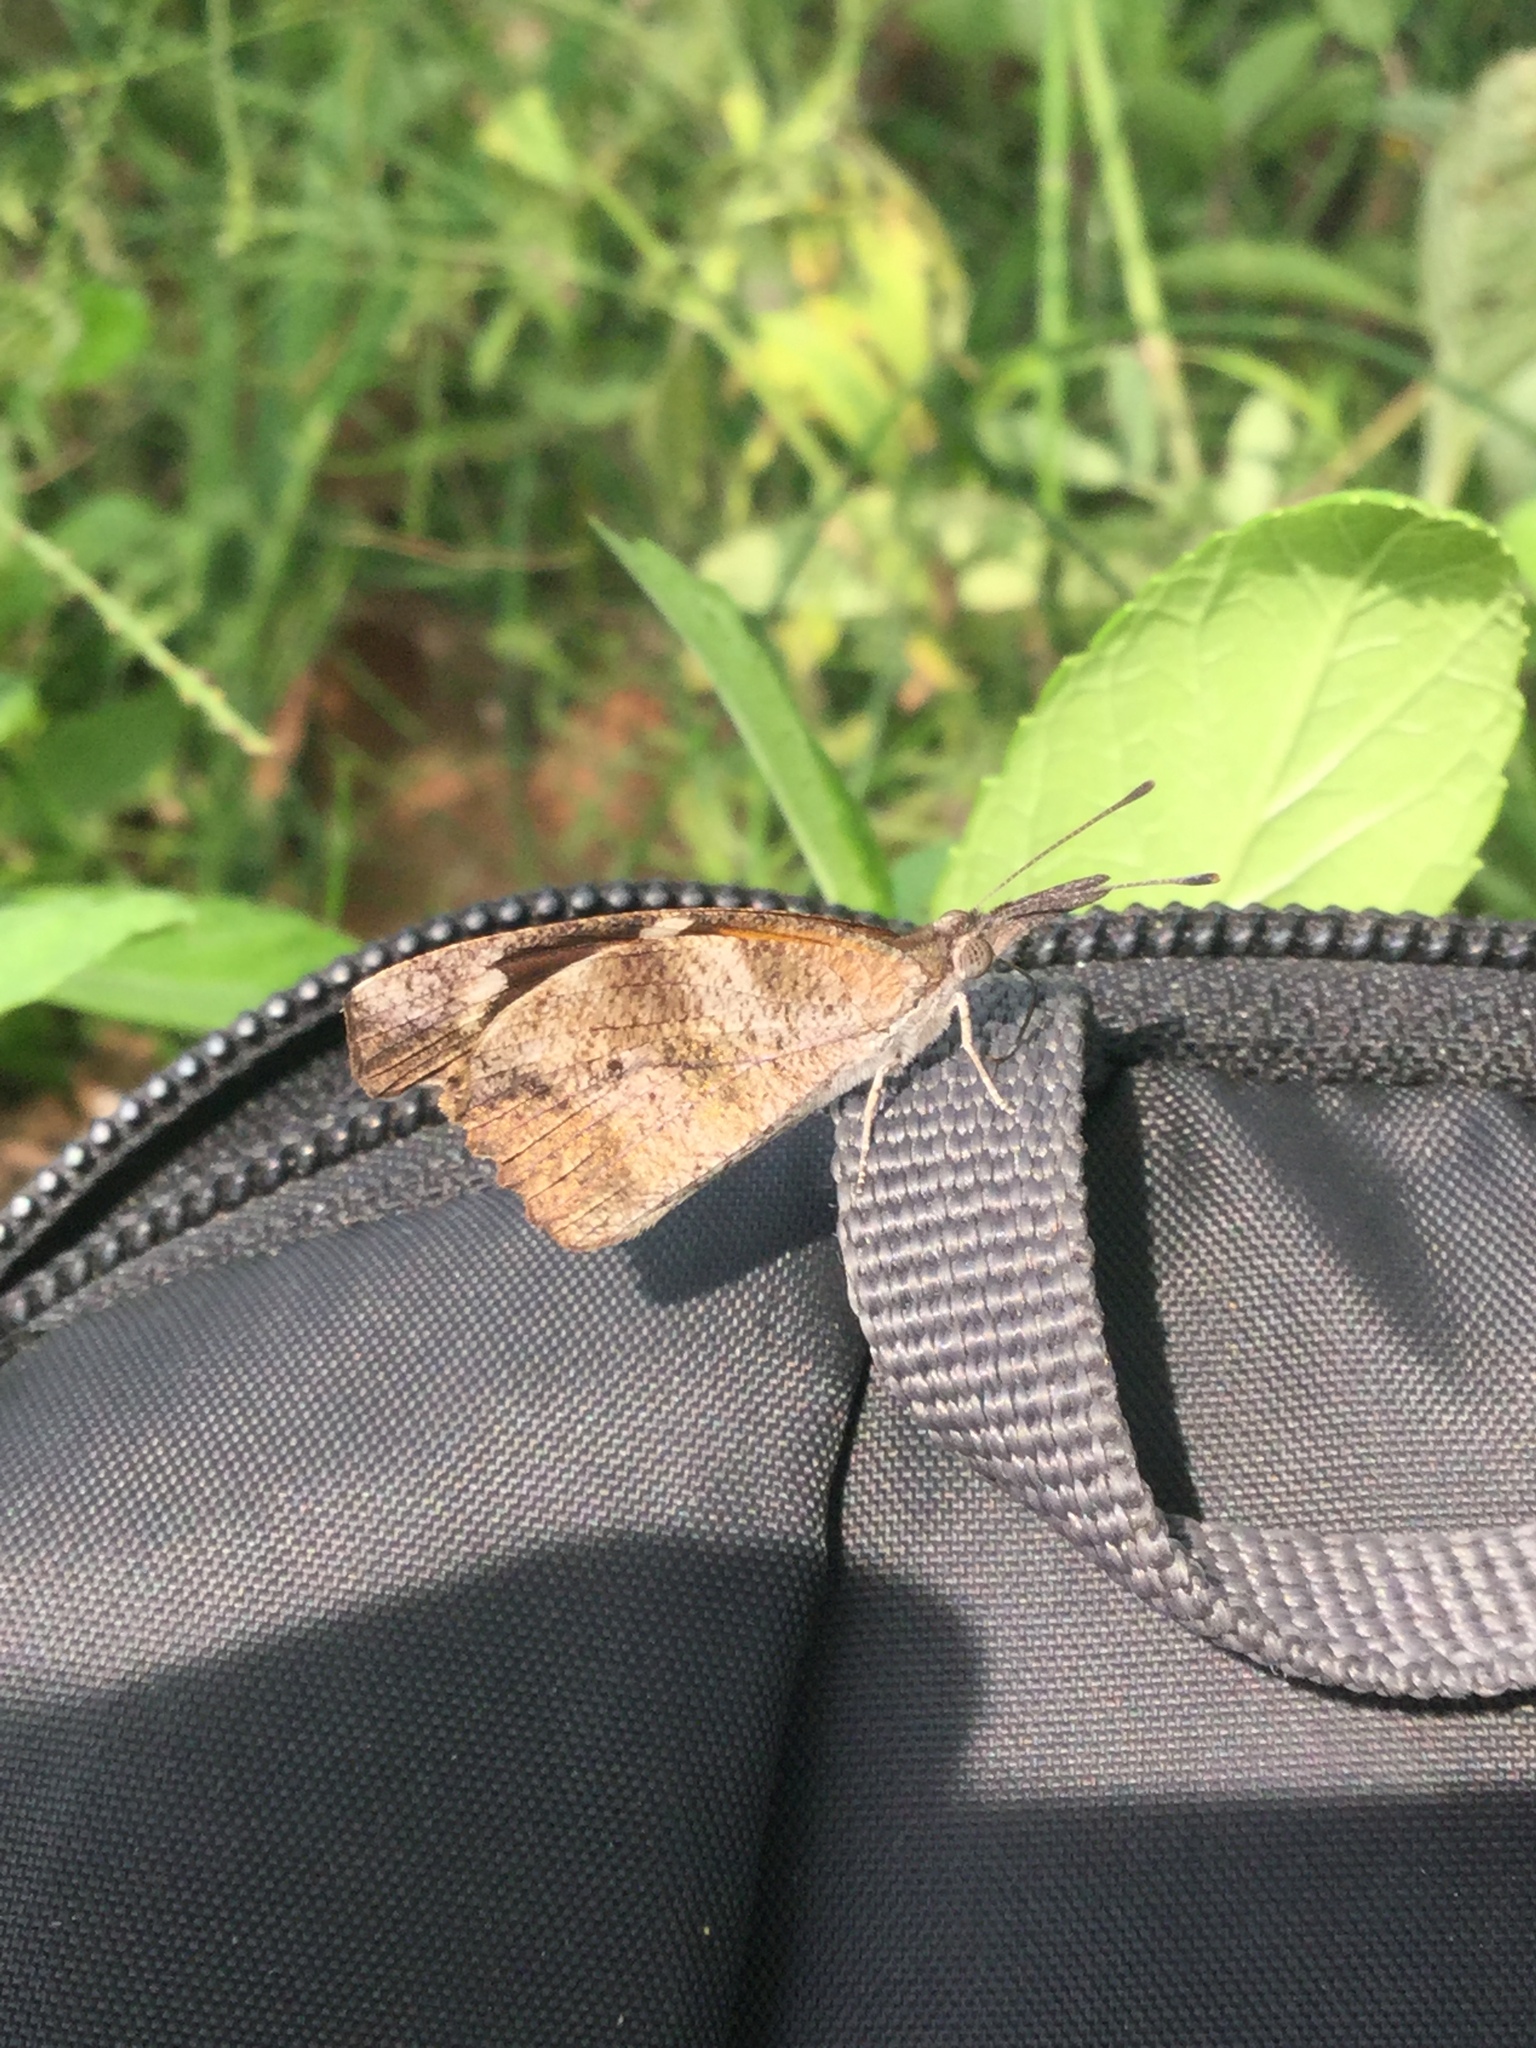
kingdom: Animalia
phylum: Arthropoda
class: Insecta
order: Lepidoptera
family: Nymphalidae
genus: Libytheana
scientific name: Libytheana carinenta
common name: American snout
